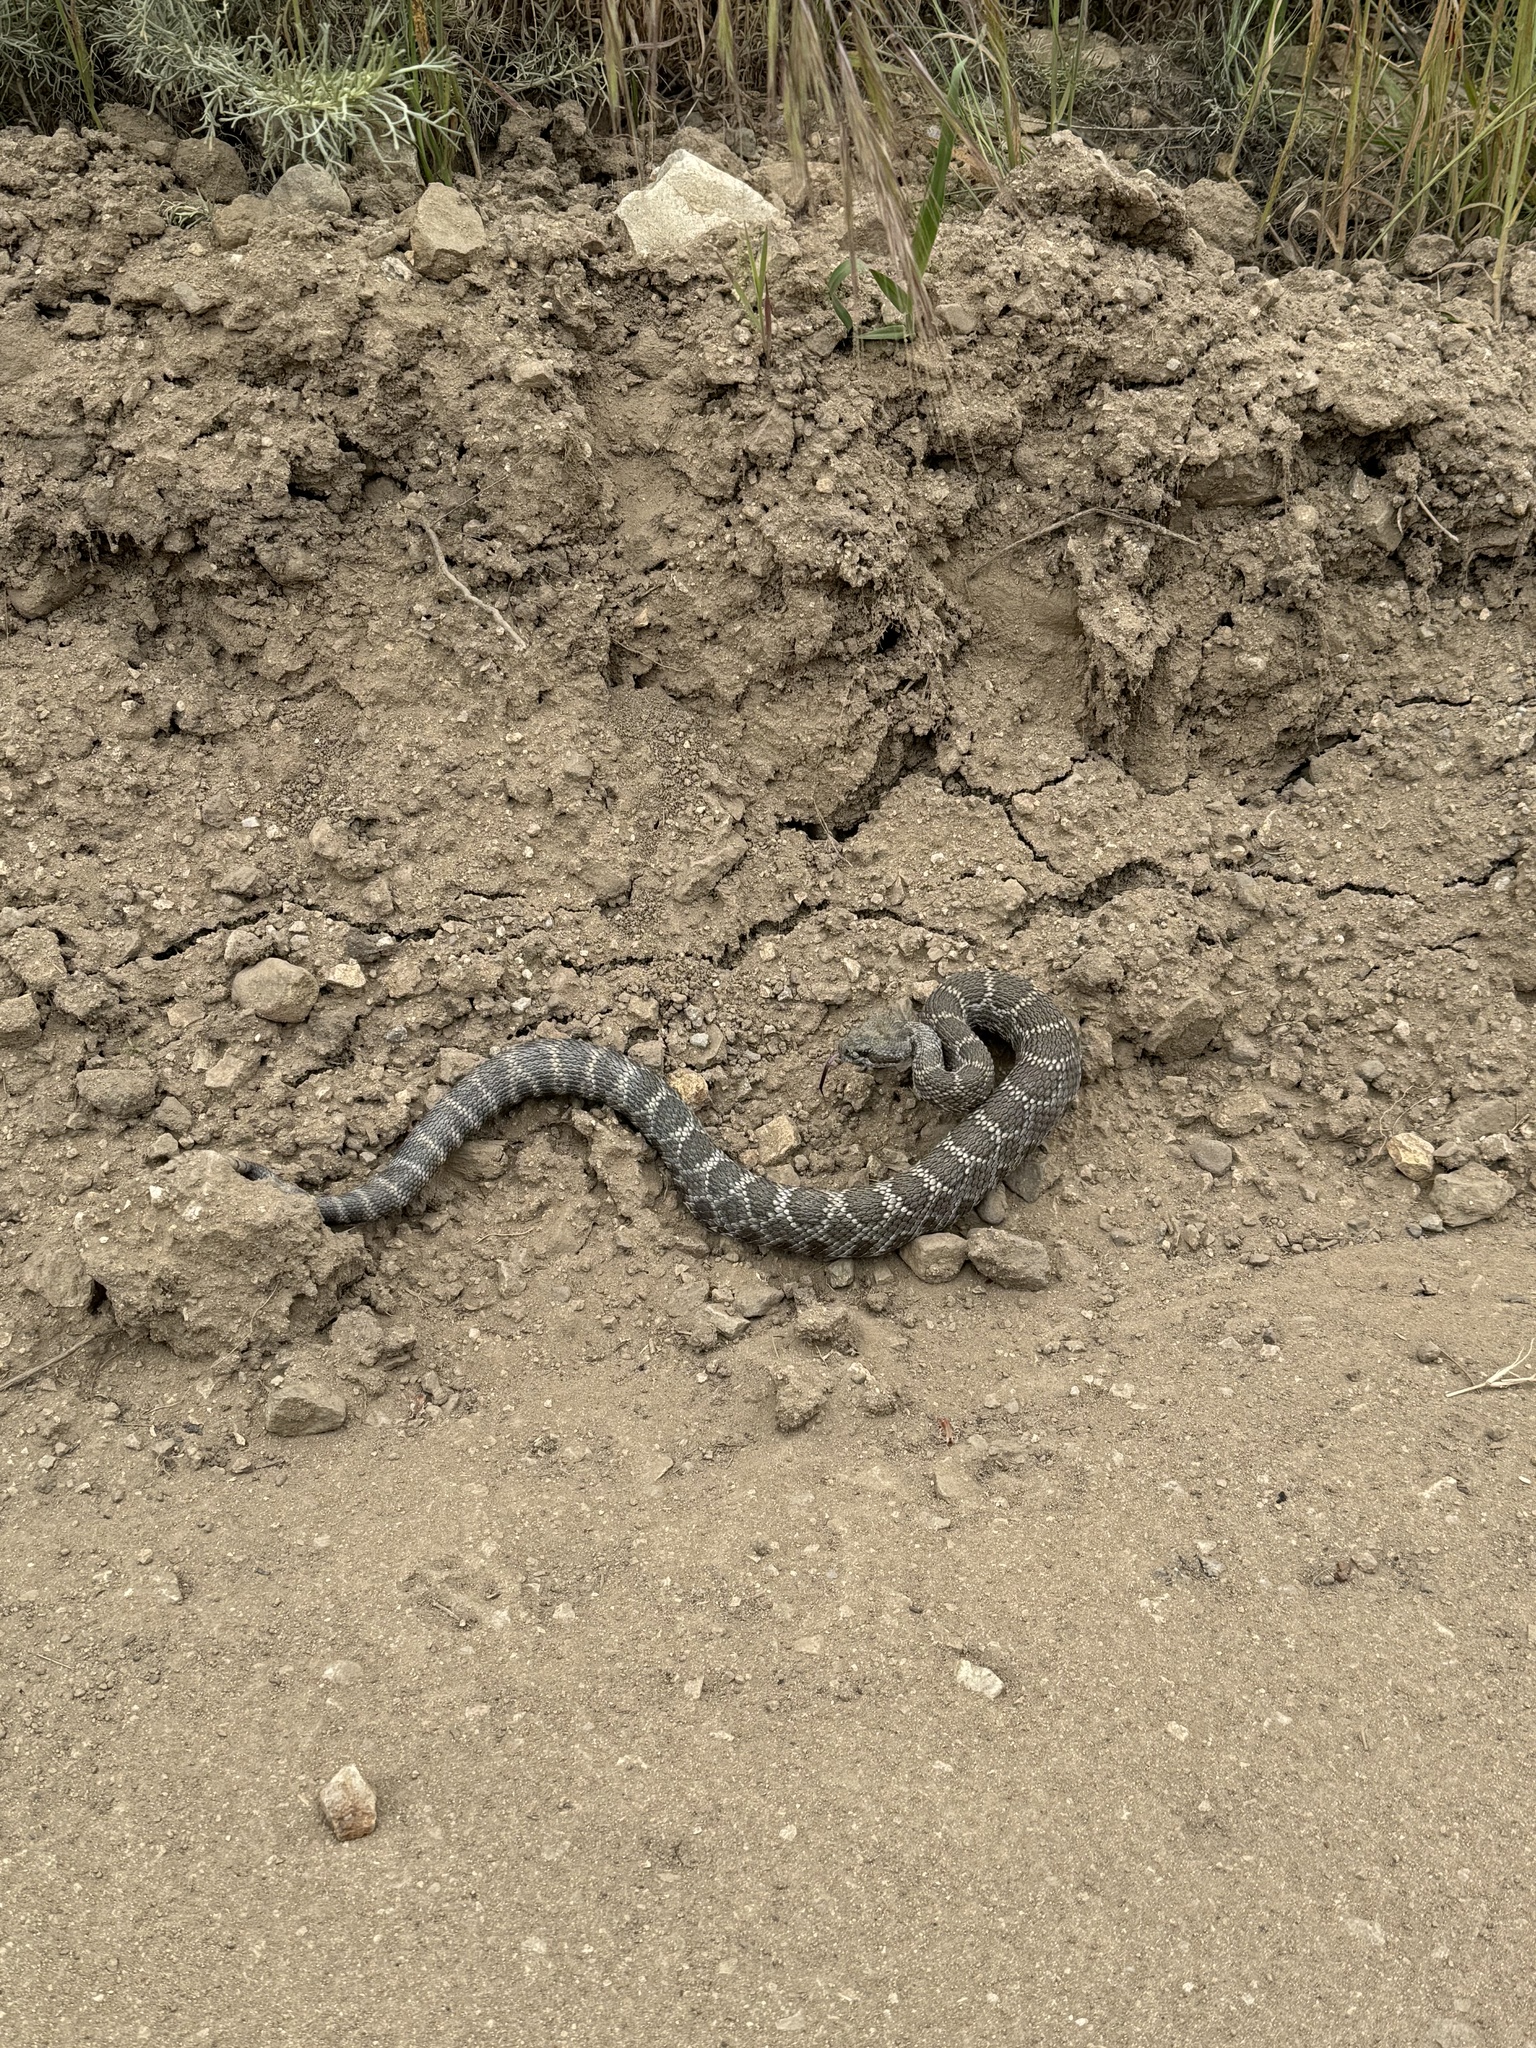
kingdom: Animalia
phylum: Chordata
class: Squamata
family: Viperidae
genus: Crotalus
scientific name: Crotalus oreganus
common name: Abyssus
